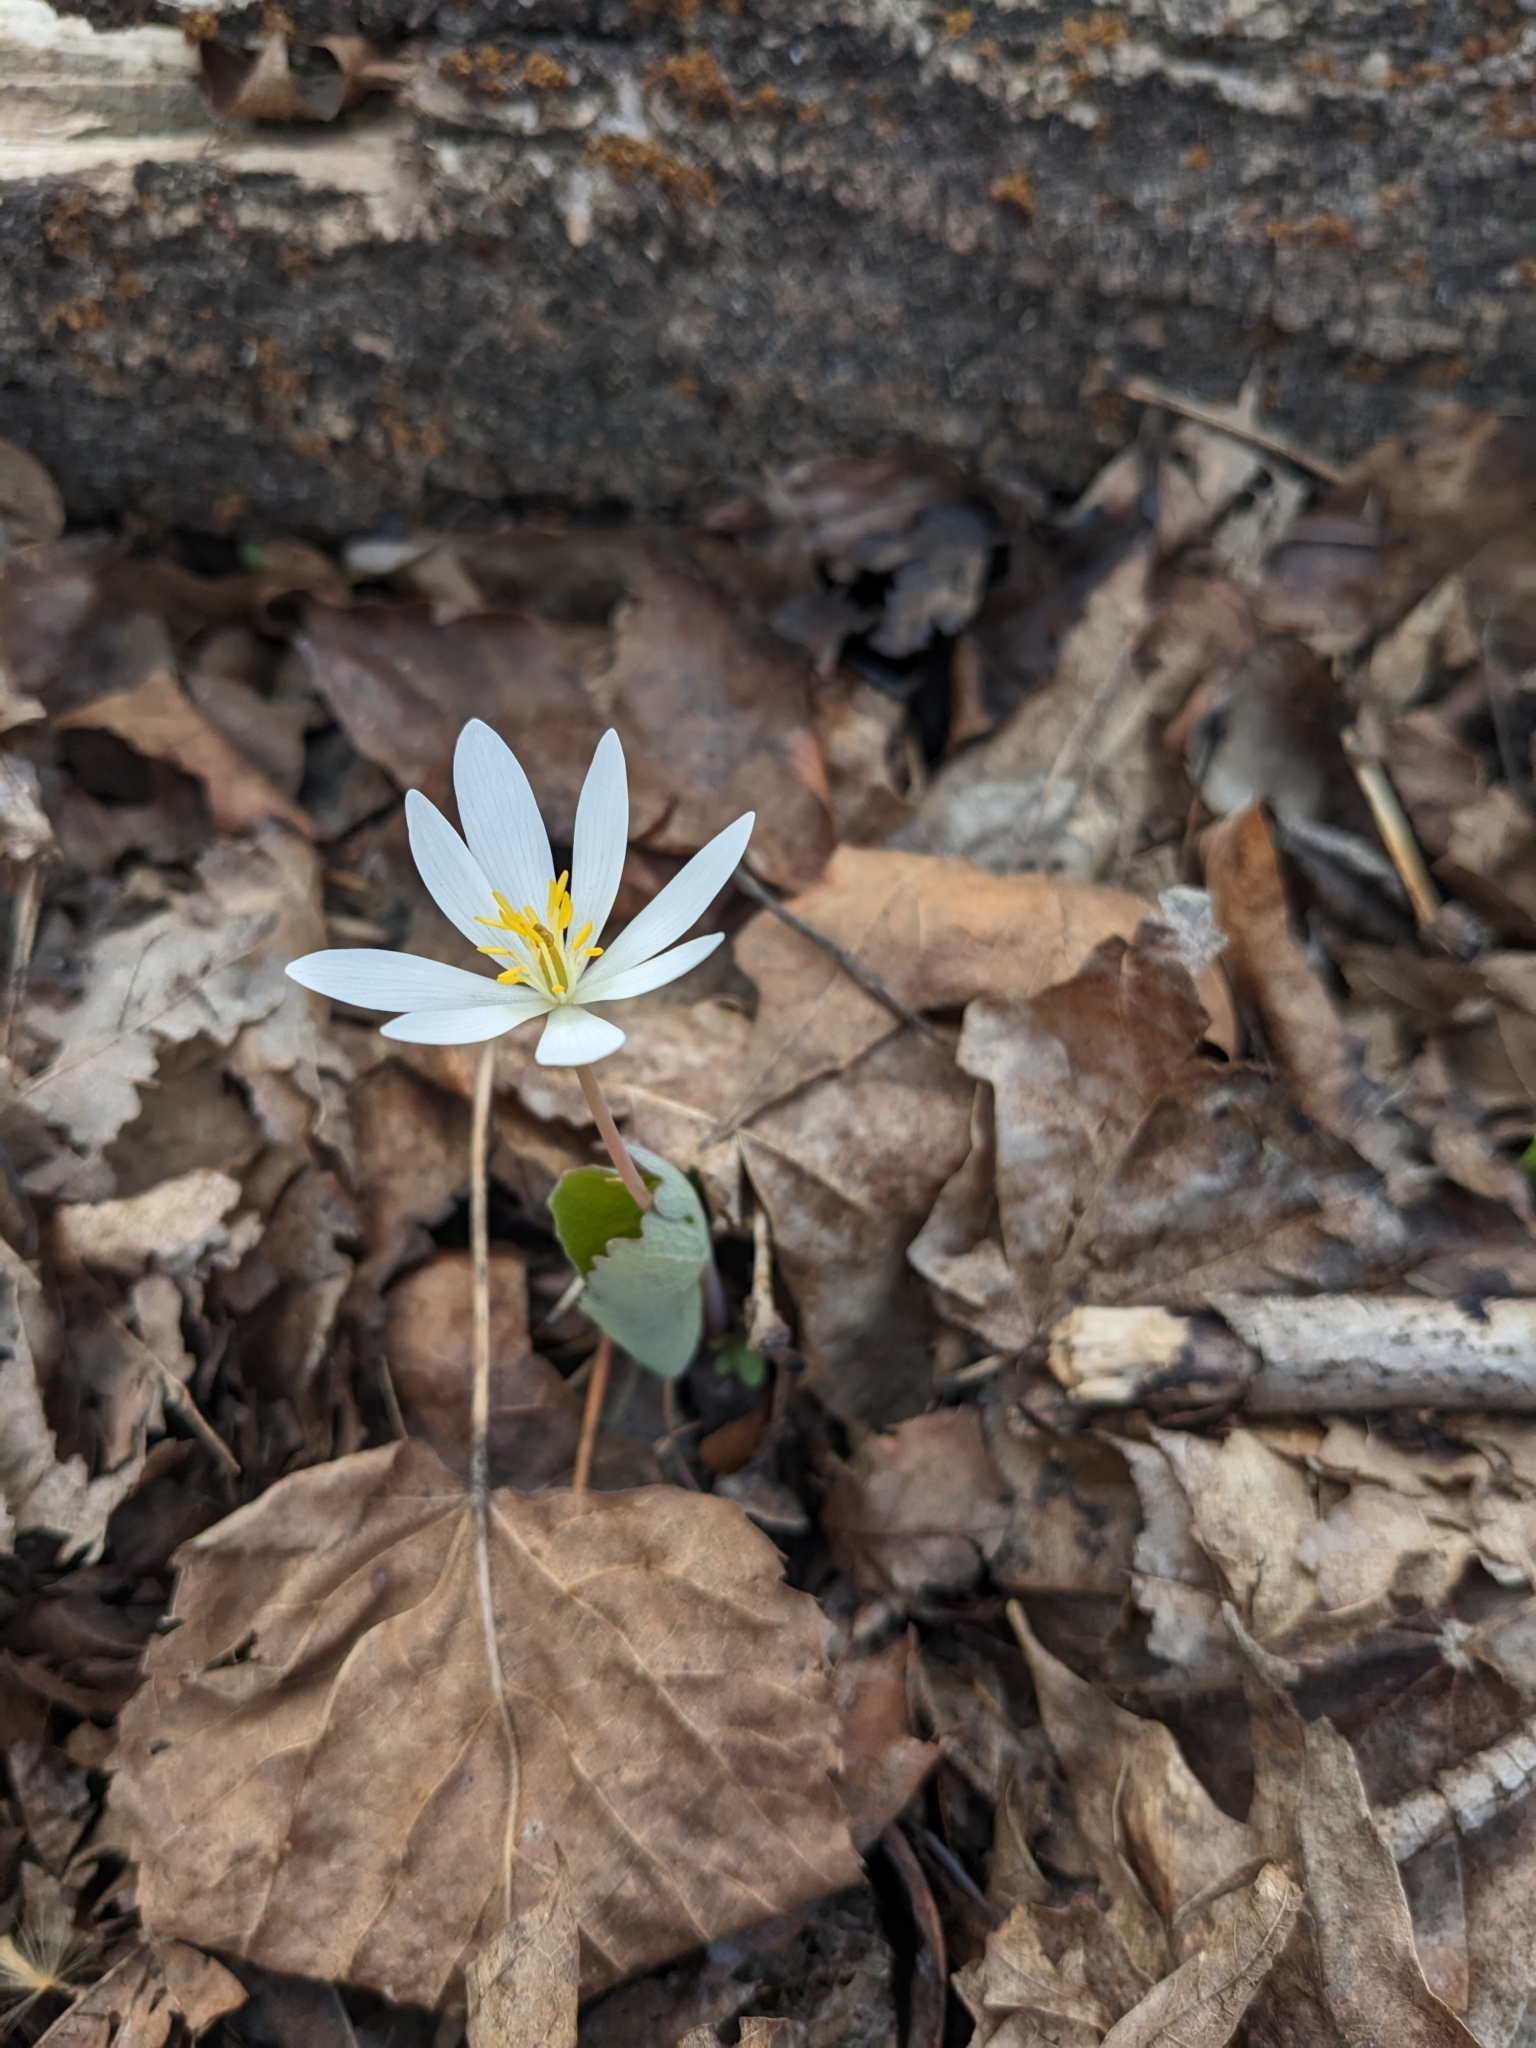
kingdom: Plantae
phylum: Tracheophyta
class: Magnoliopsida
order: Ranunculales
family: Papaveraceae
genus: Sanguinaria
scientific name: Sanguinaria canadensis
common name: Bloodroot
